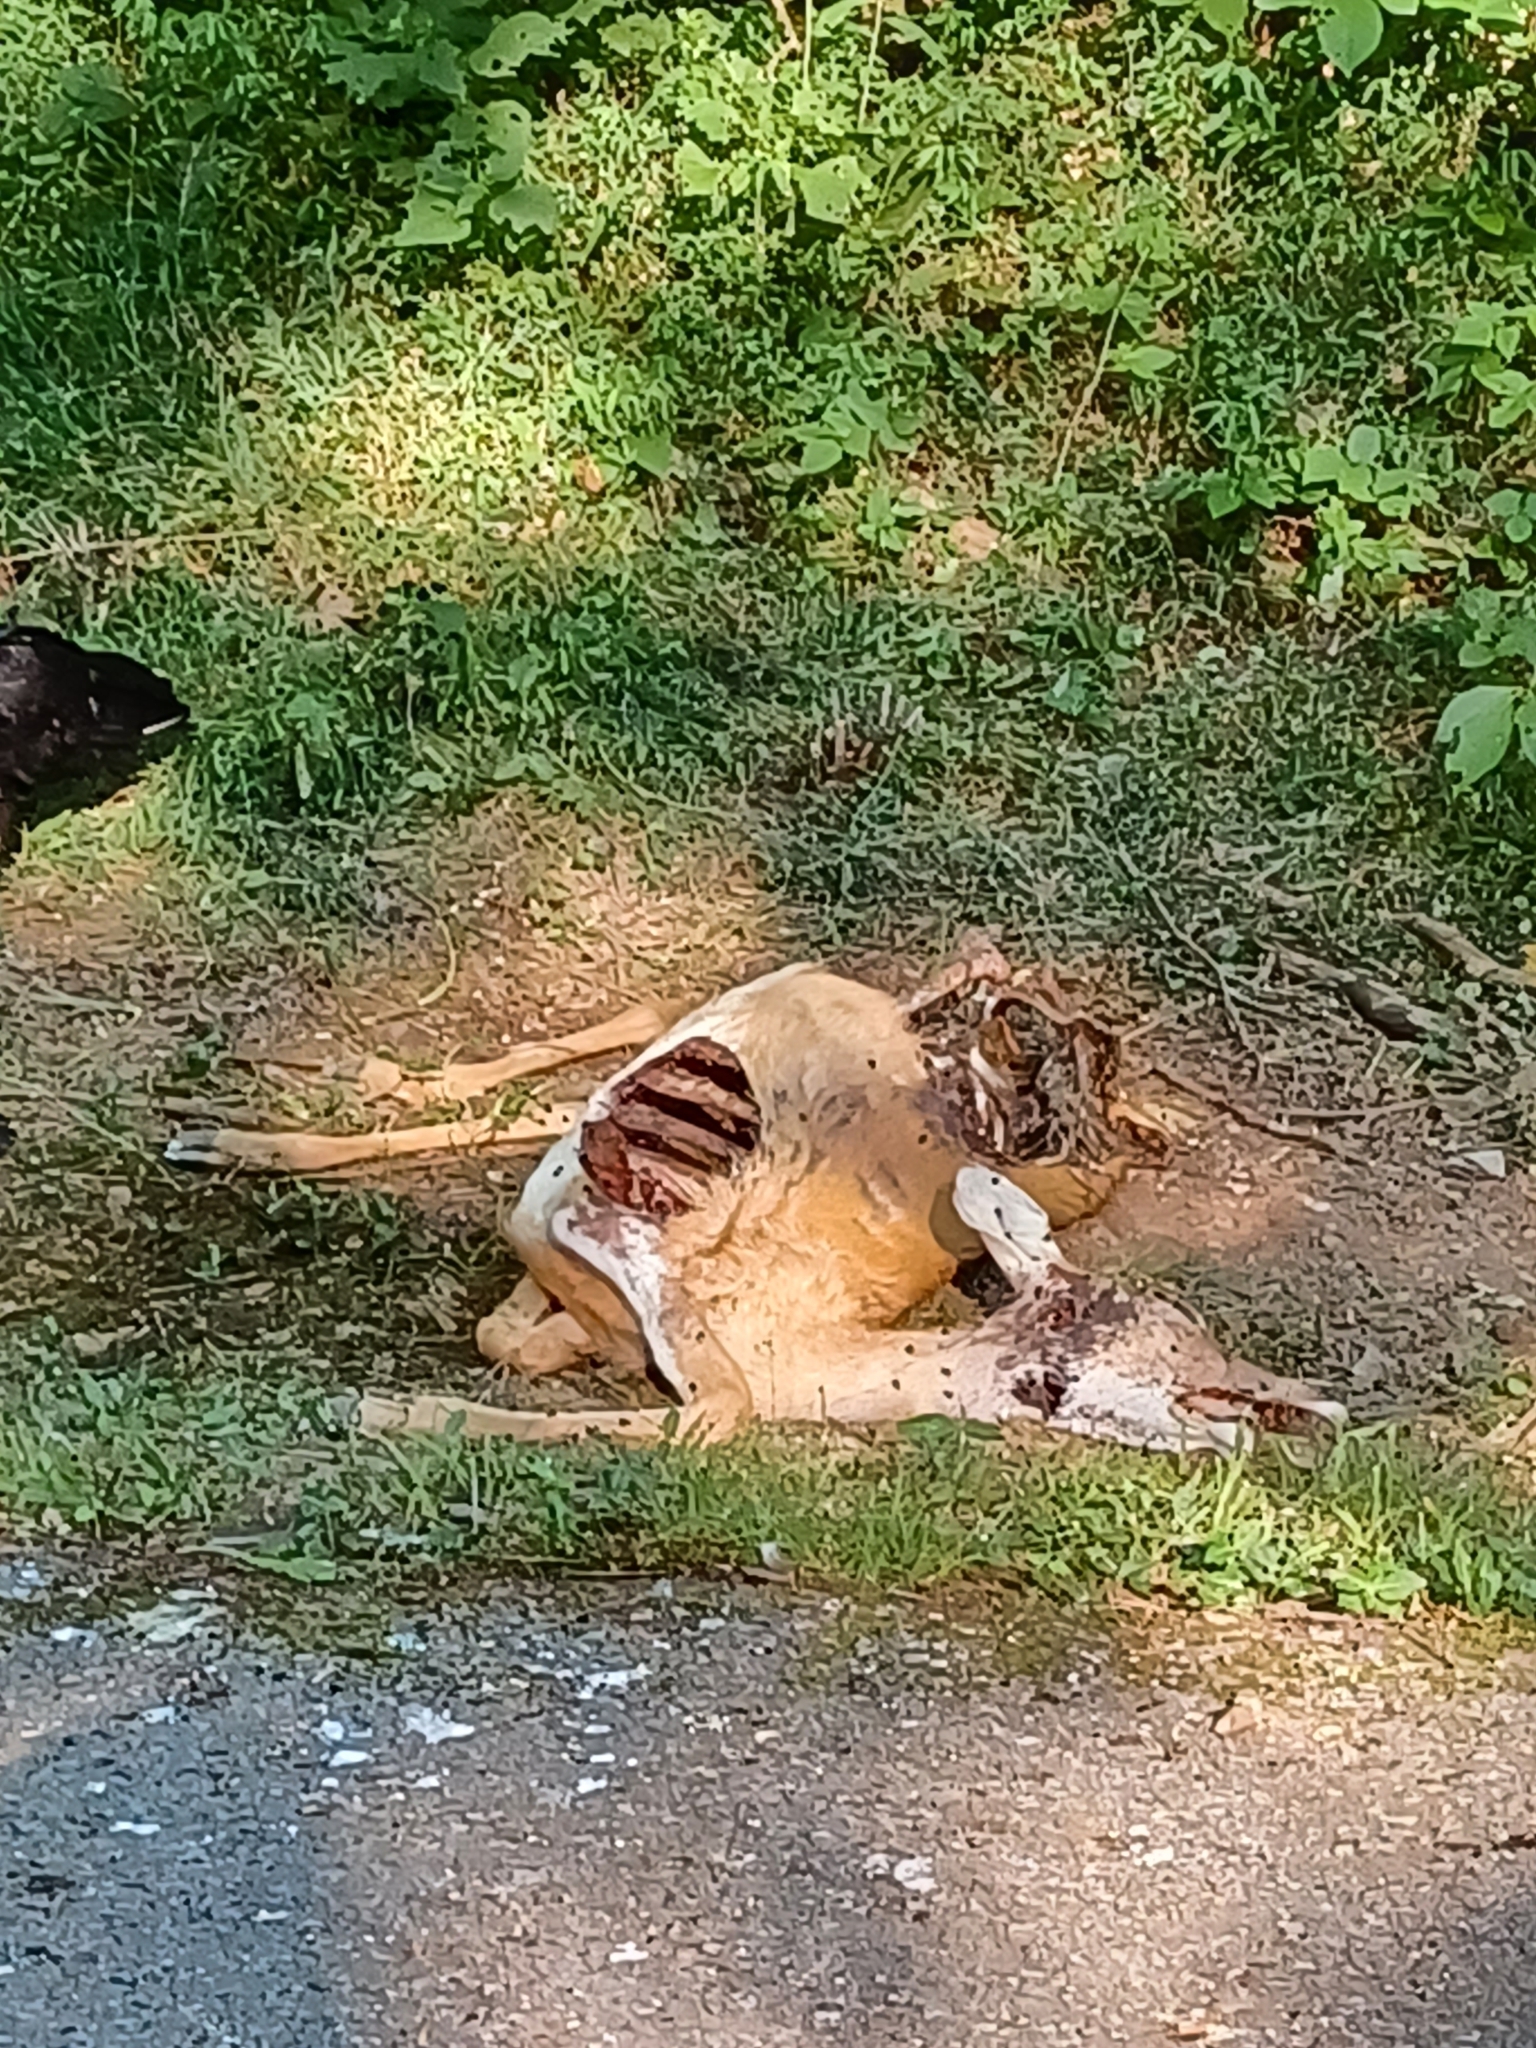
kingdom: Animalia
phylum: Chordata
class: Mammalia
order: Artiodactyla
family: Cervidae
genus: Odocoileus
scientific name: Odocoileus virginianus
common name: White-tailed deer
